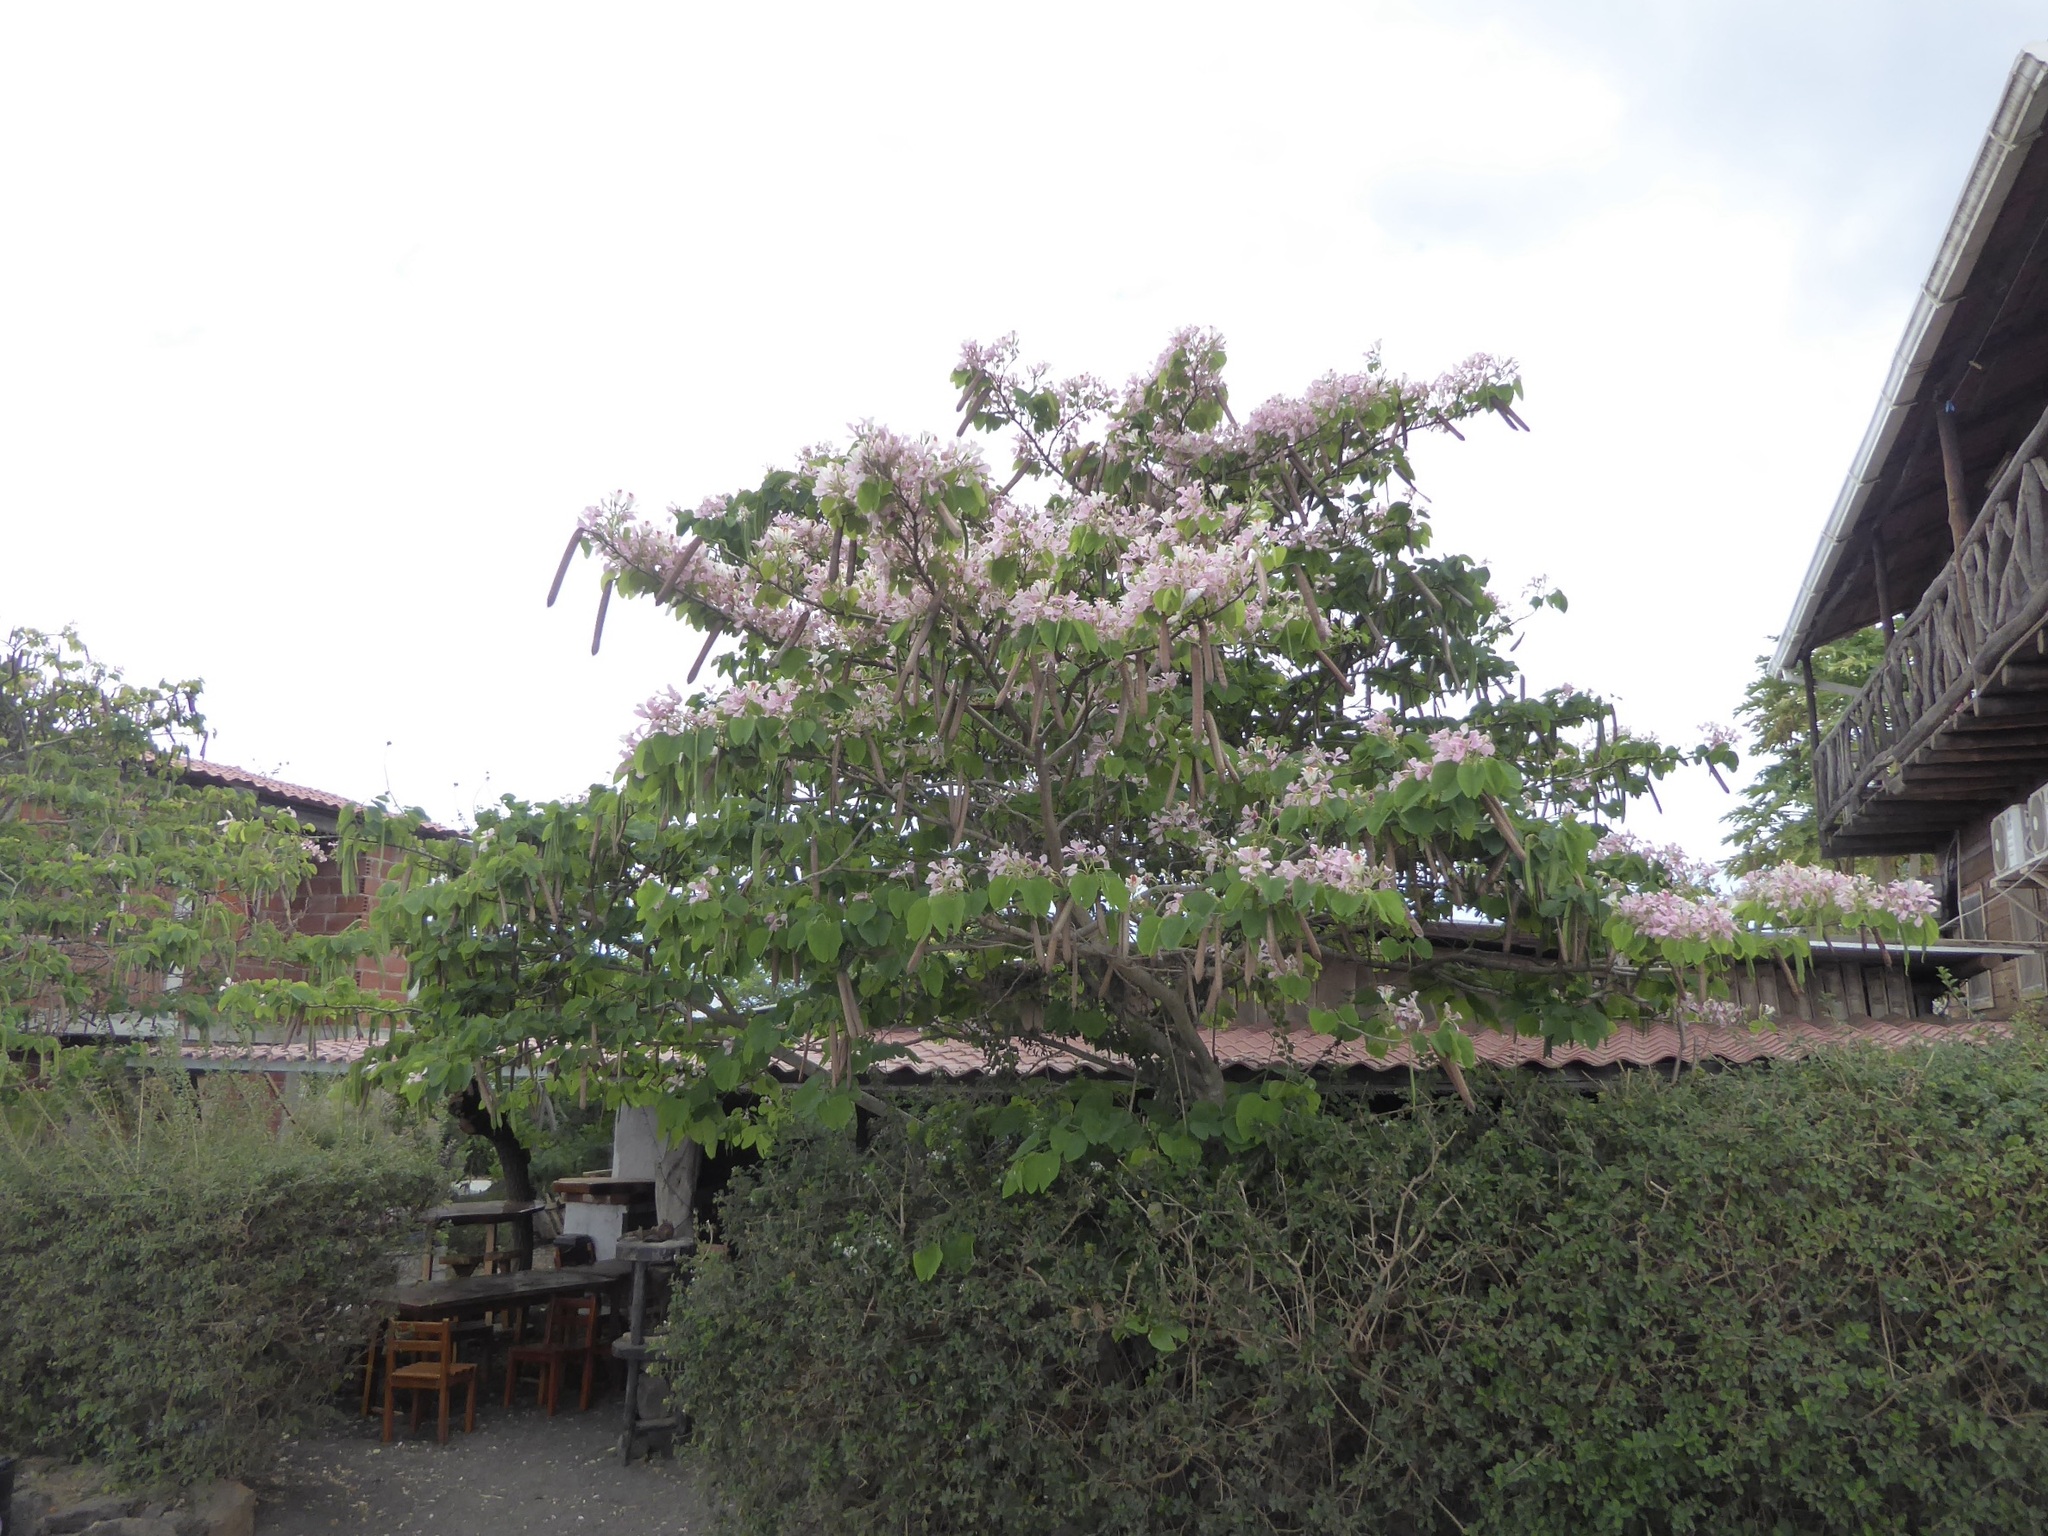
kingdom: Plantae
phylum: Tracheophyta
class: Magnoliopsida
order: Fabales
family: Fabaceae
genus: Bauhinia
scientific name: Bauhinia monandra
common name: Napoleon's plume
